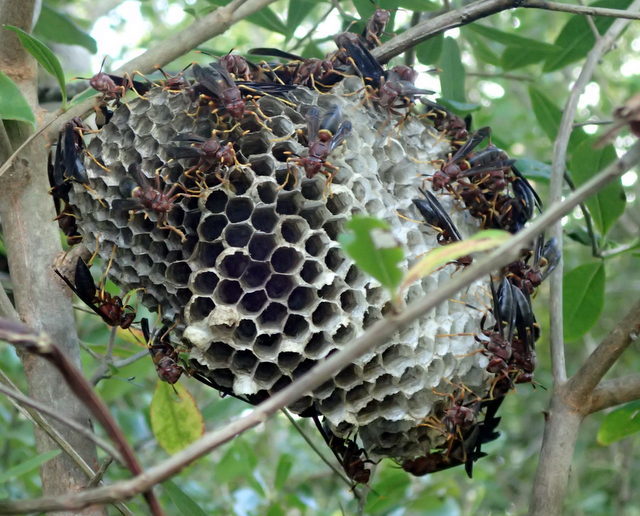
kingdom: Animalia
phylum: Arthropoda
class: Insecta
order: Hymenoptera
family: Eumenidae
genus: Polistes
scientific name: Polistes annularis
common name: Ringed paper wasp
